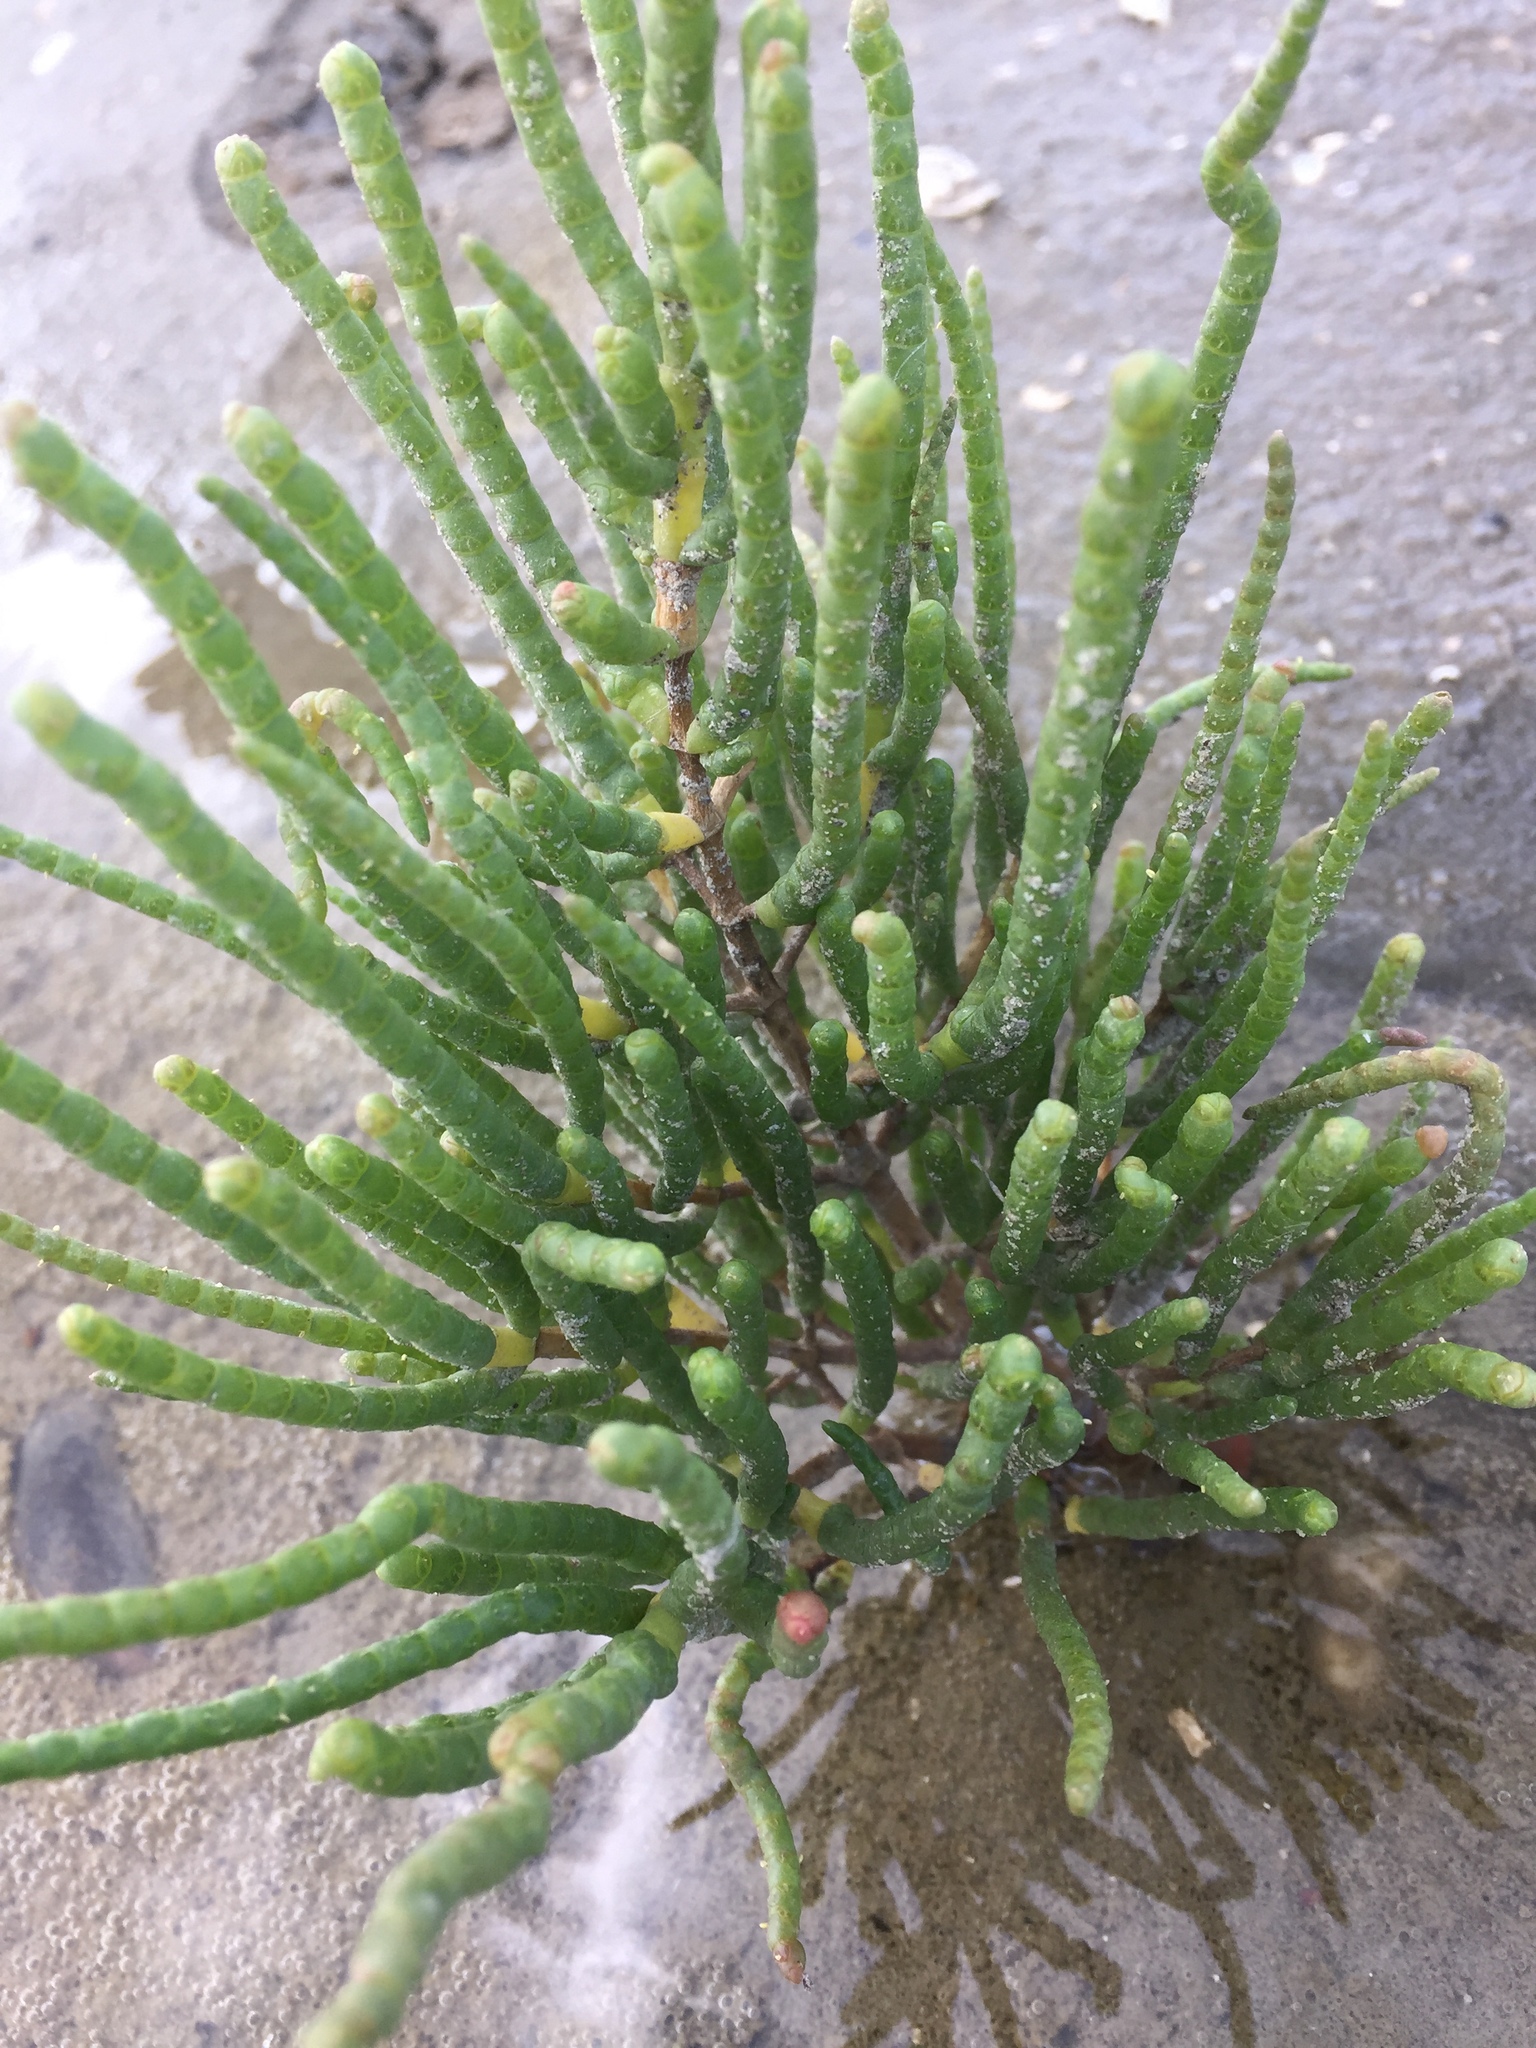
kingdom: Plantae
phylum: Tracheophyta
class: Magnoliopsida
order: Caryophyllales
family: Amaranthaceae
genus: Salicornia
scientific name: Salicornia europaea
